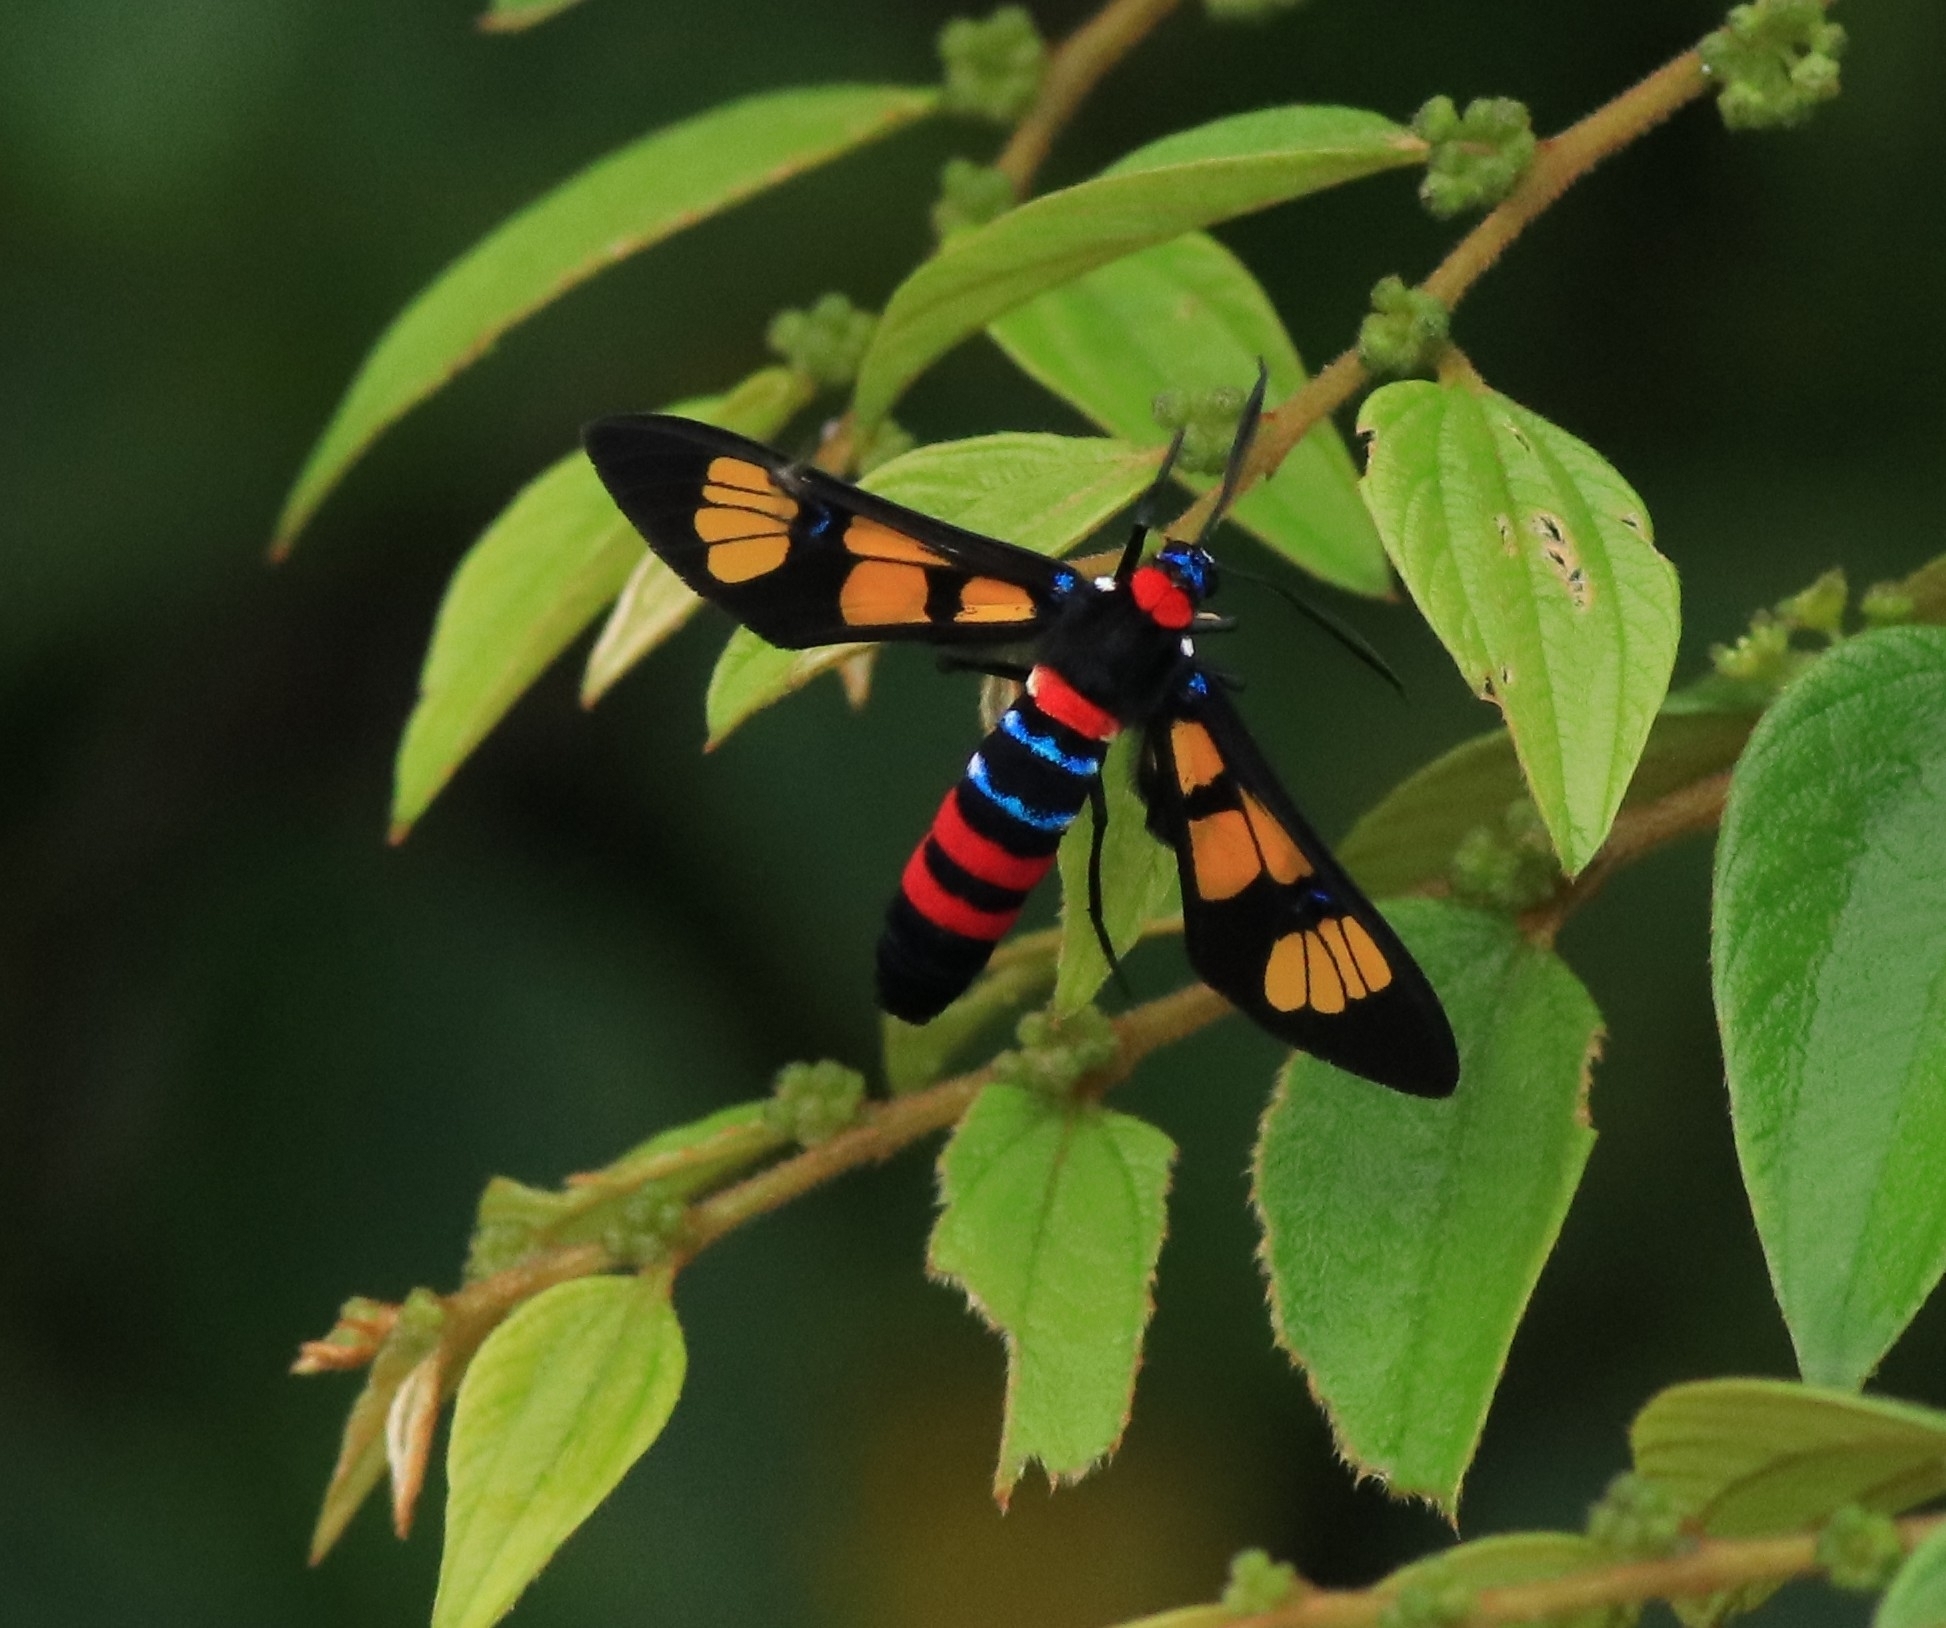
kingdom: Animalia
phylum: Arthropoda
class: Insecta
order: Lepidoptera
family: Erebidae
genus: Euchromia
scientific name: Euchromia polymena
